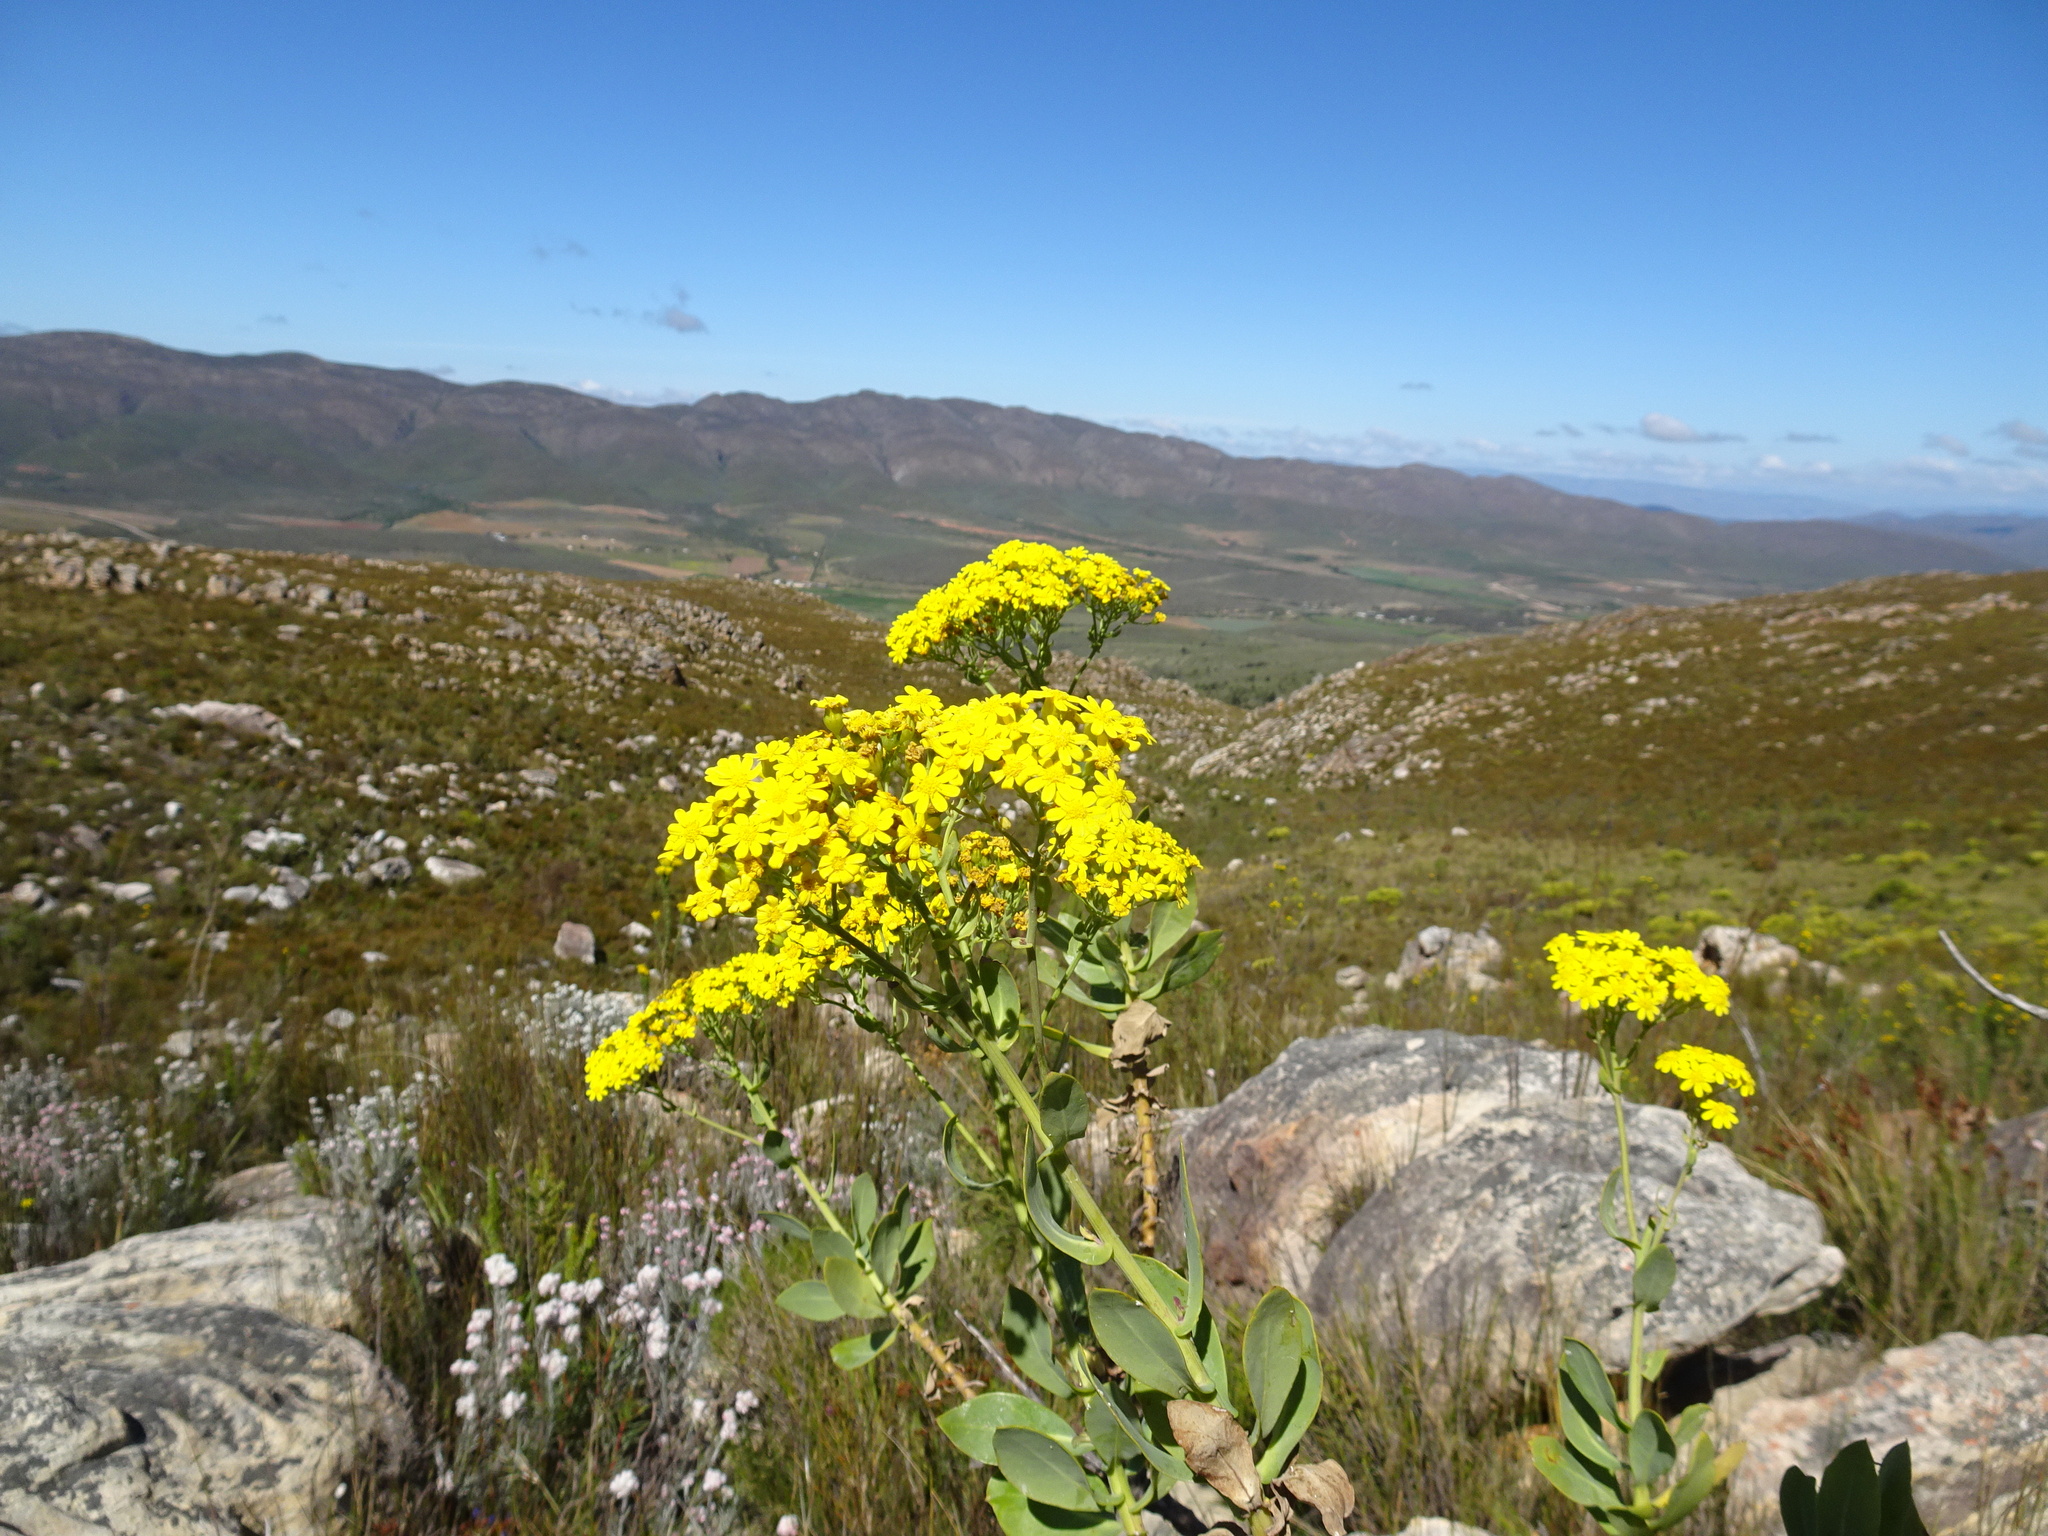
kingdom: Plantae
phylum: Tracheophyta
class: Magnoliopsida
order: Asterales
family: Asteraceae
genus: Othonna
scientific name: Othonna parviflora
